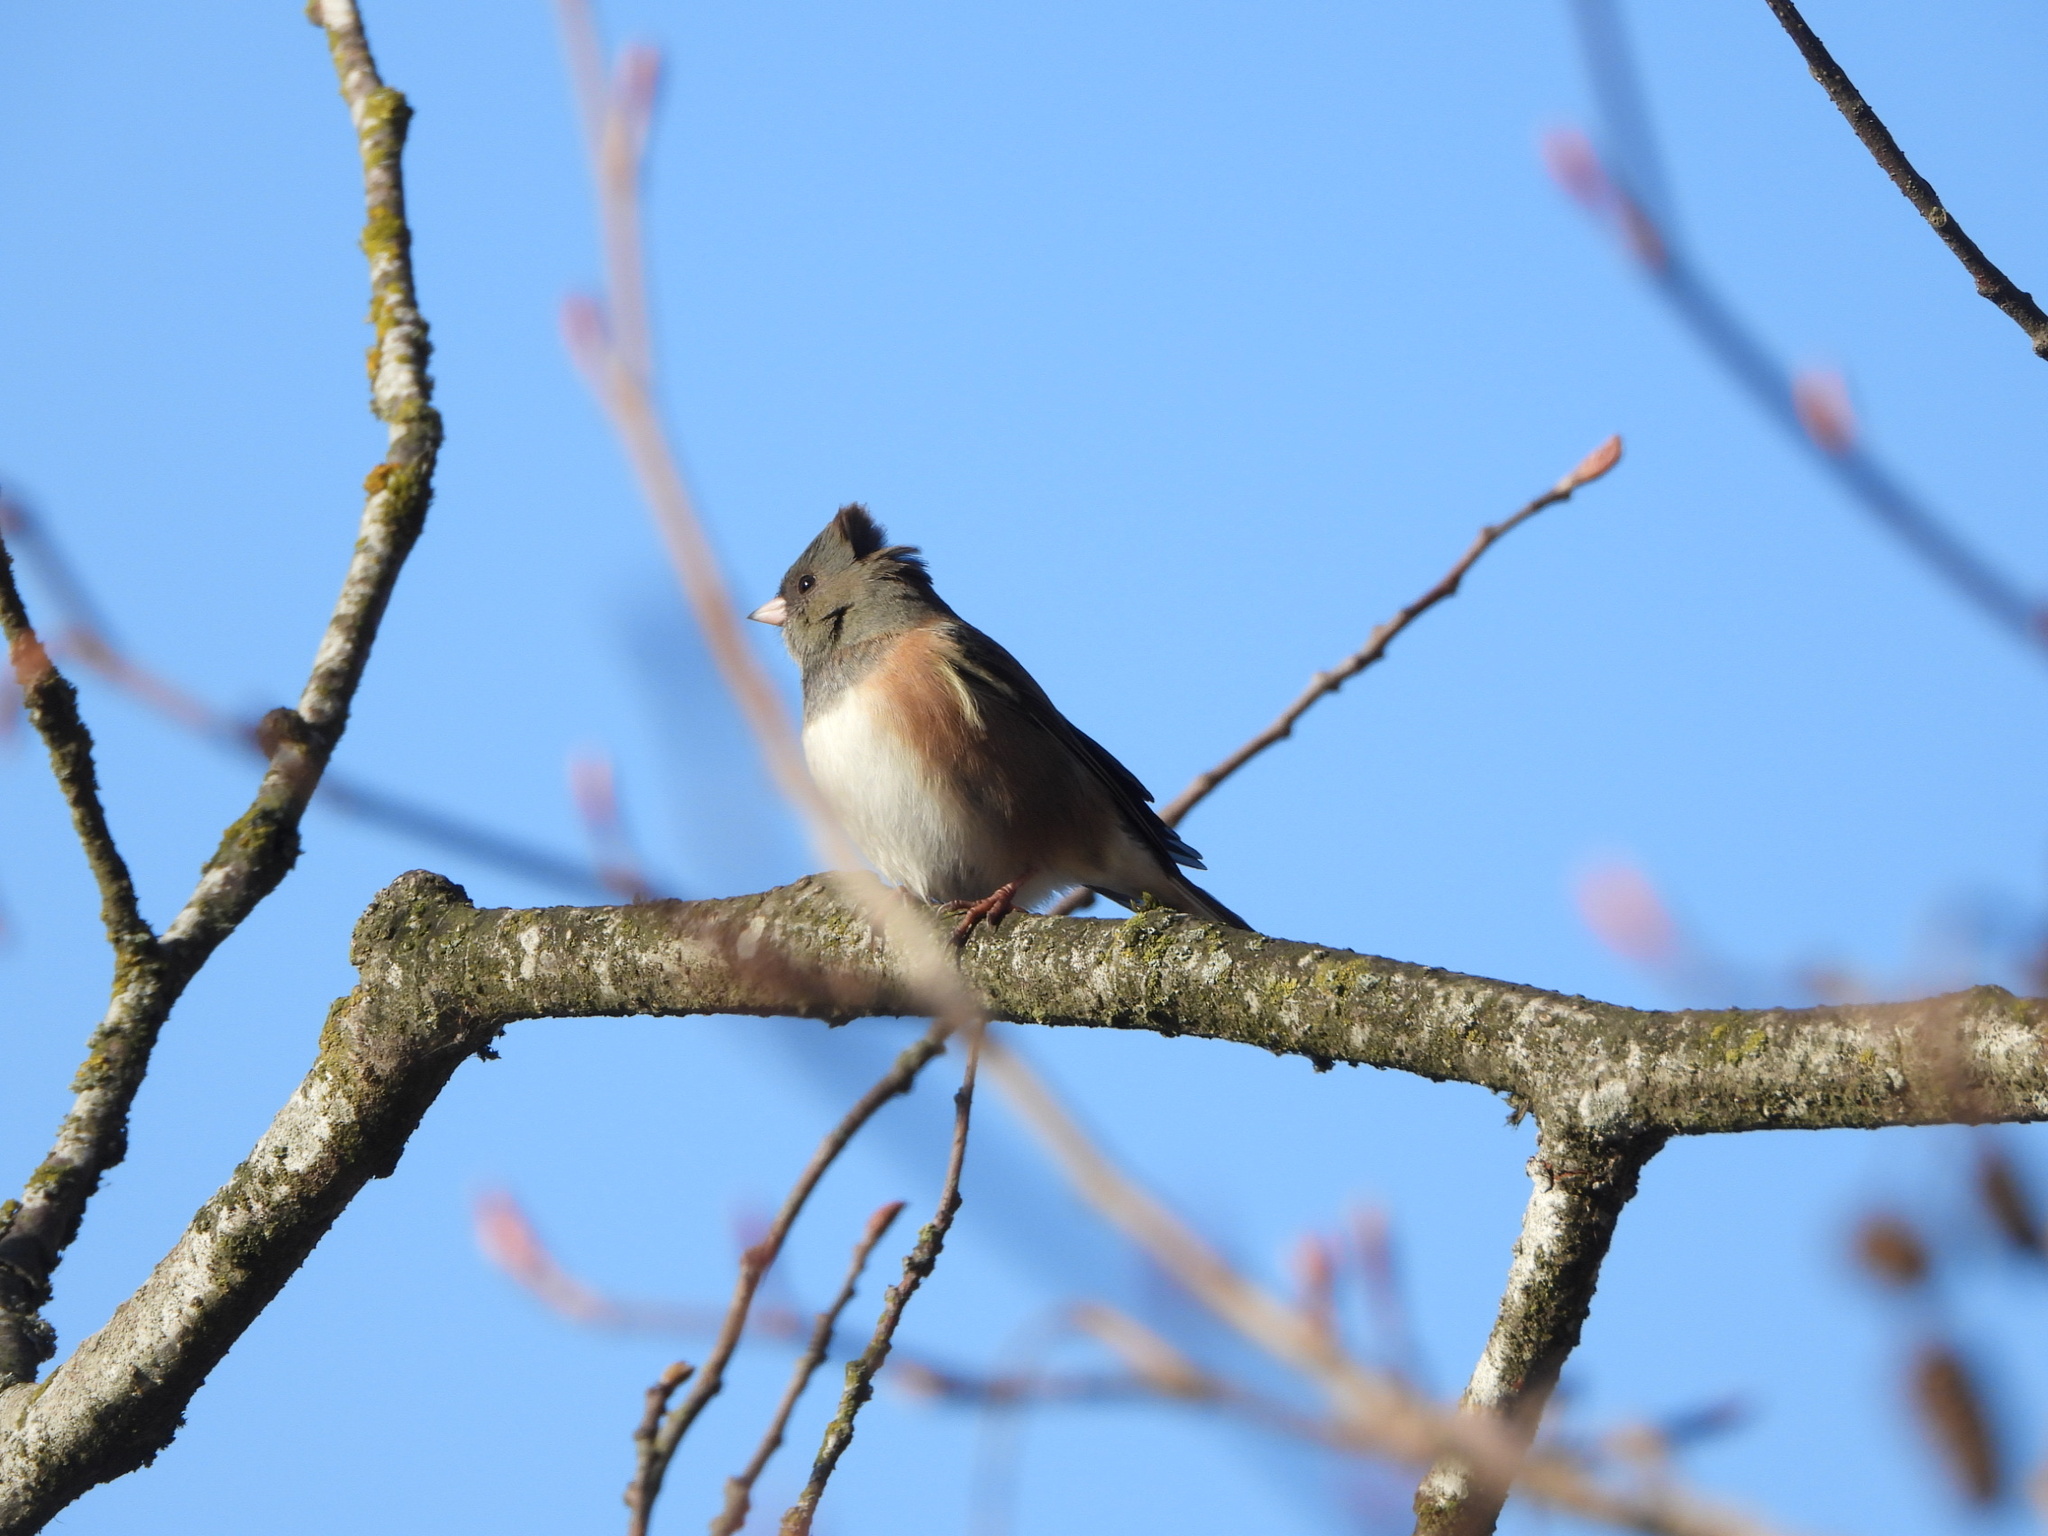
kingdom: Animalia
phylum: Chordata
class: Aves
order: Passeriformes
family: Passerellidae
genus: Junco
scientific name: Junco hyemalis
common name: Dark-eyed junco
